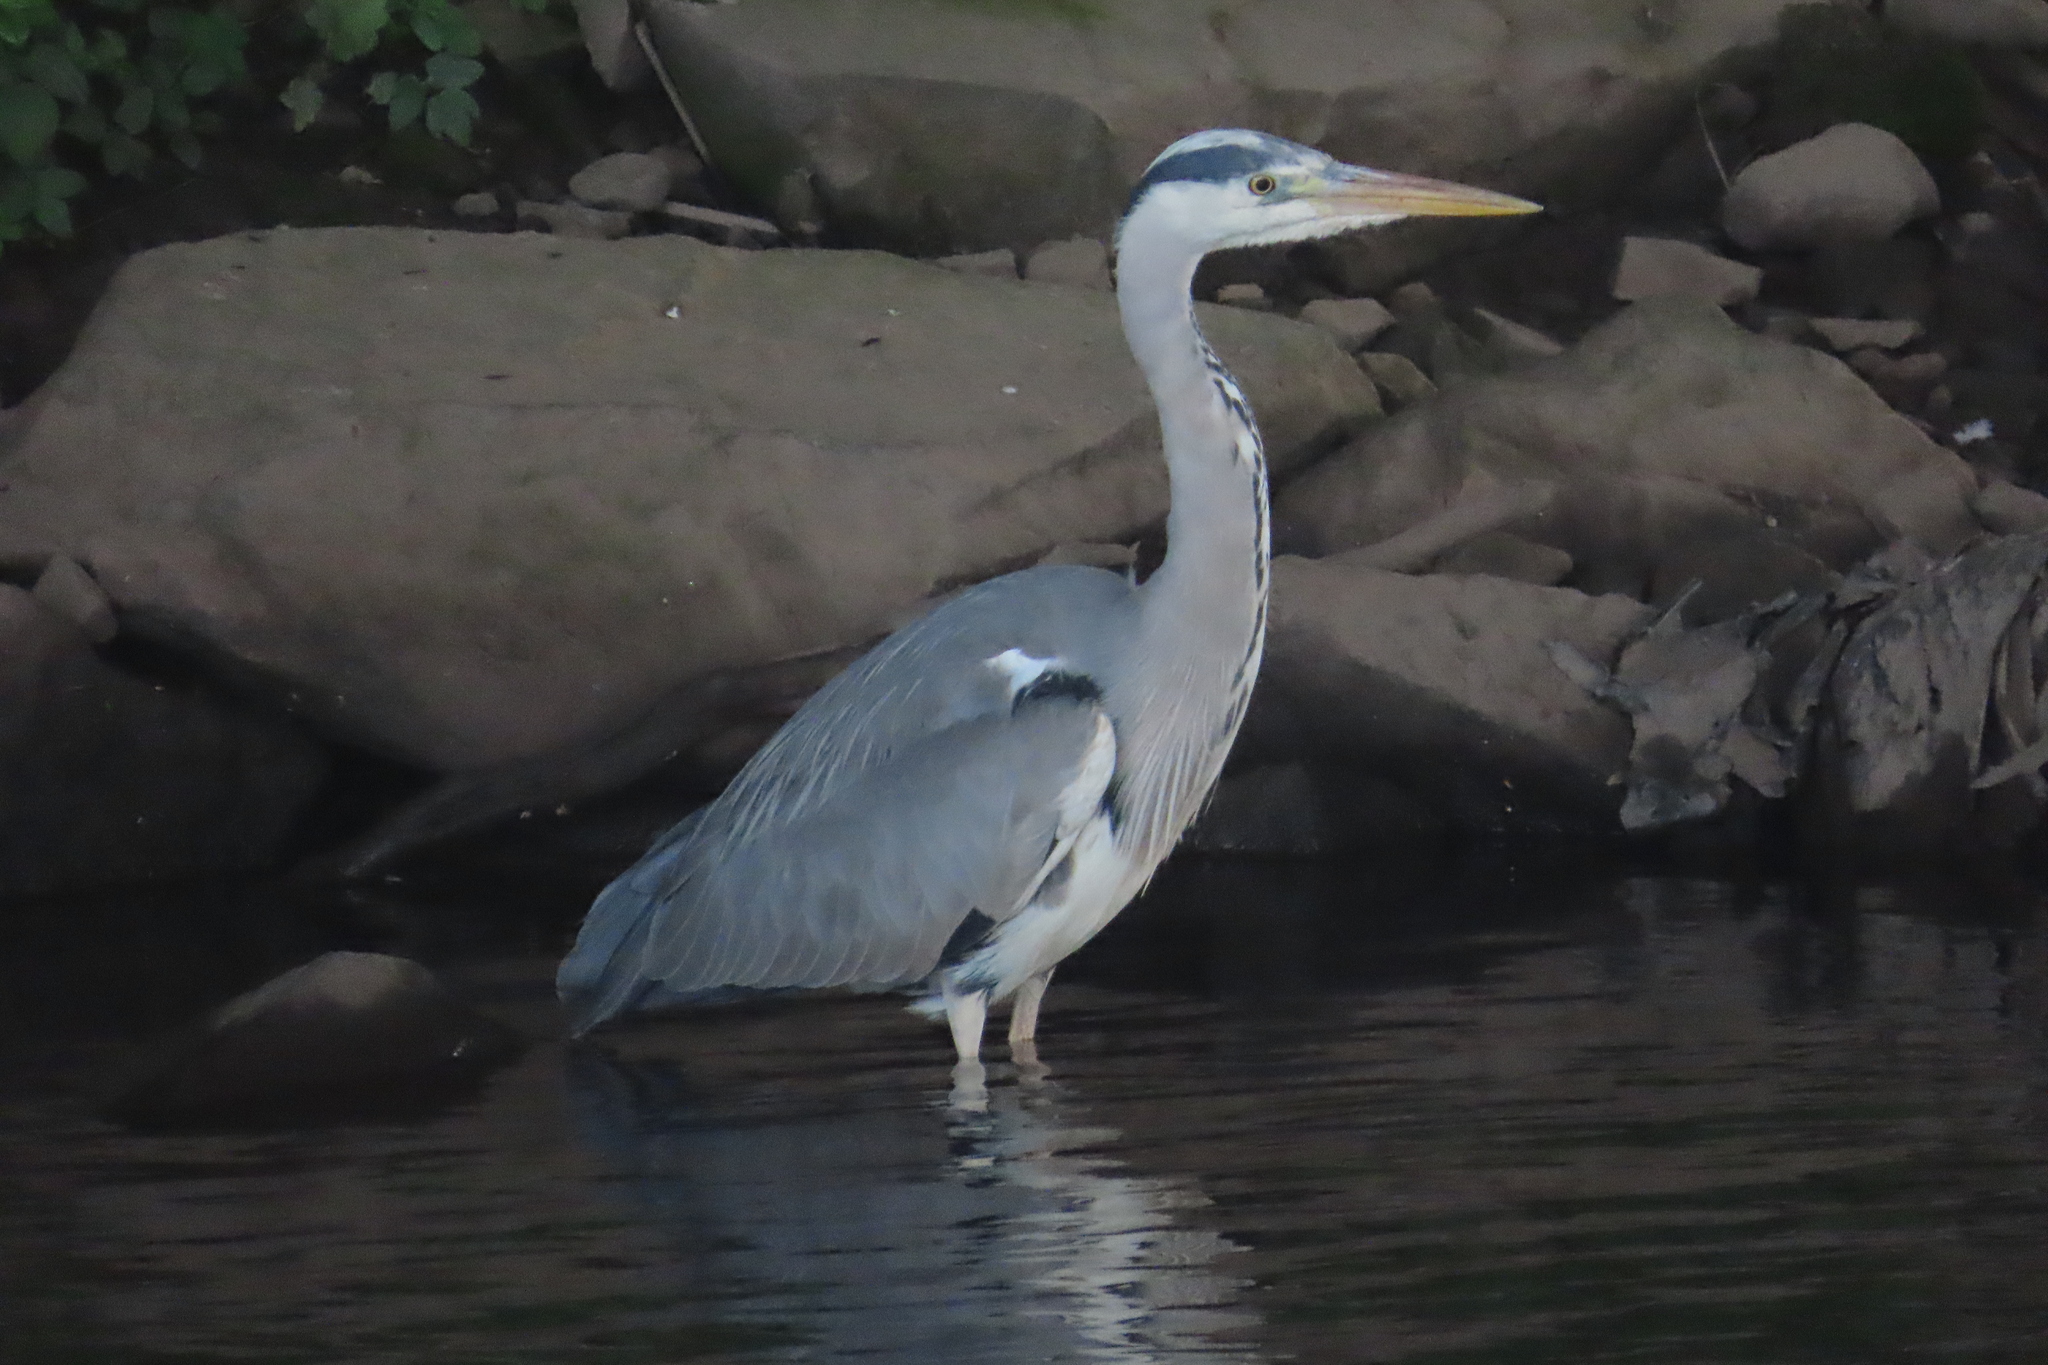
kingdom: Animalia
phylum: Chordata
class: Aves
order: Pelecaniformes
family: Ardeidae
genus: Ardea
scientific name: Ardea cinerea
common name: Grey heron
